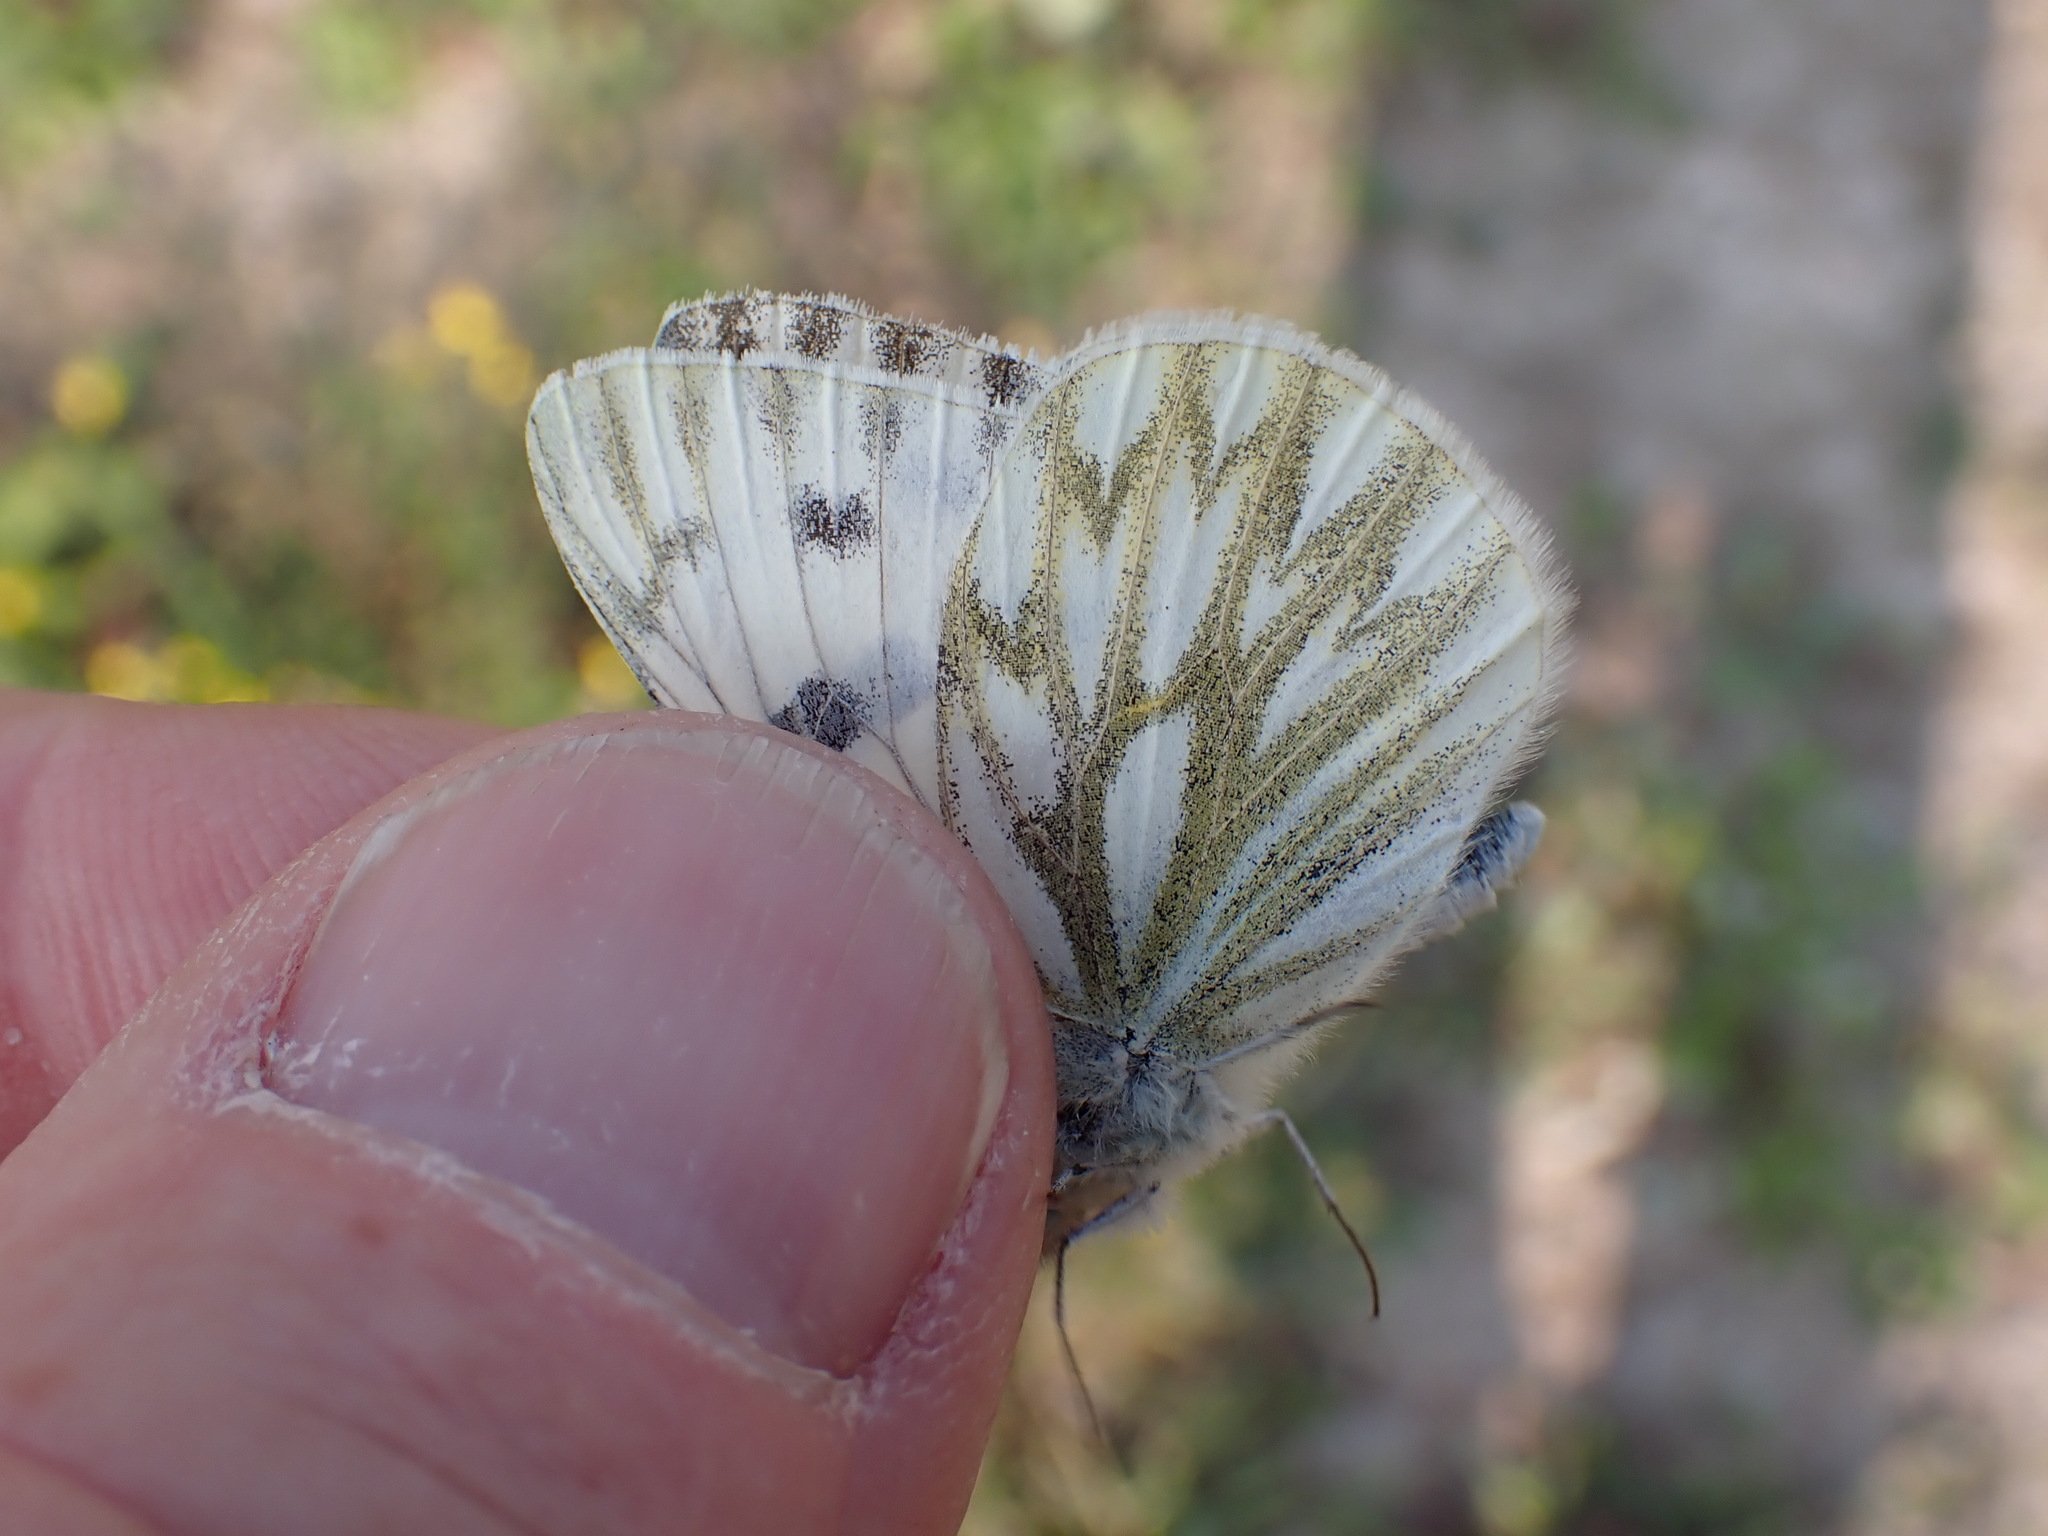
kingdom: Animalia
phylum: Arthropoda
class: Insecta
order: Lepidoptera
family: Pieridae
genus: Pontia
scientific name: Pontia occidentalis
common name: Western white
